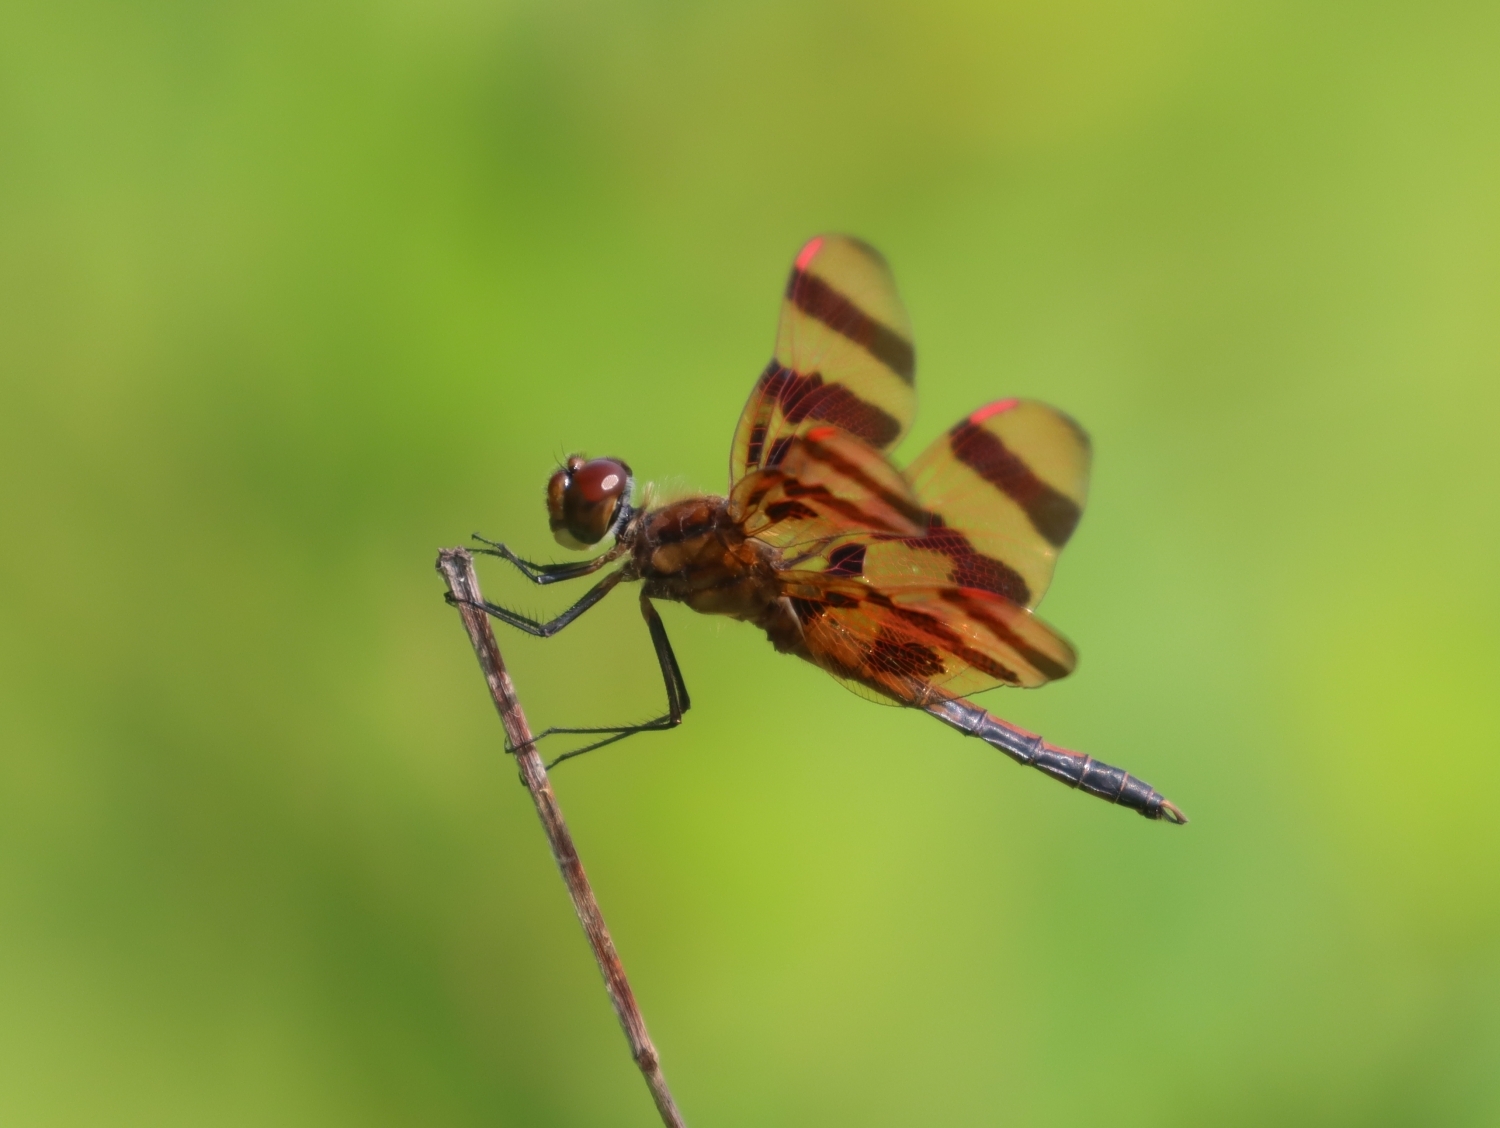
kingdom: Animalia
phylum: Arthropoda
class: Insecta
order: Odonata
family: Libellulidae
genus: Celithemis
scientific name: Celithemis eponina
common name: Halloween pennant
